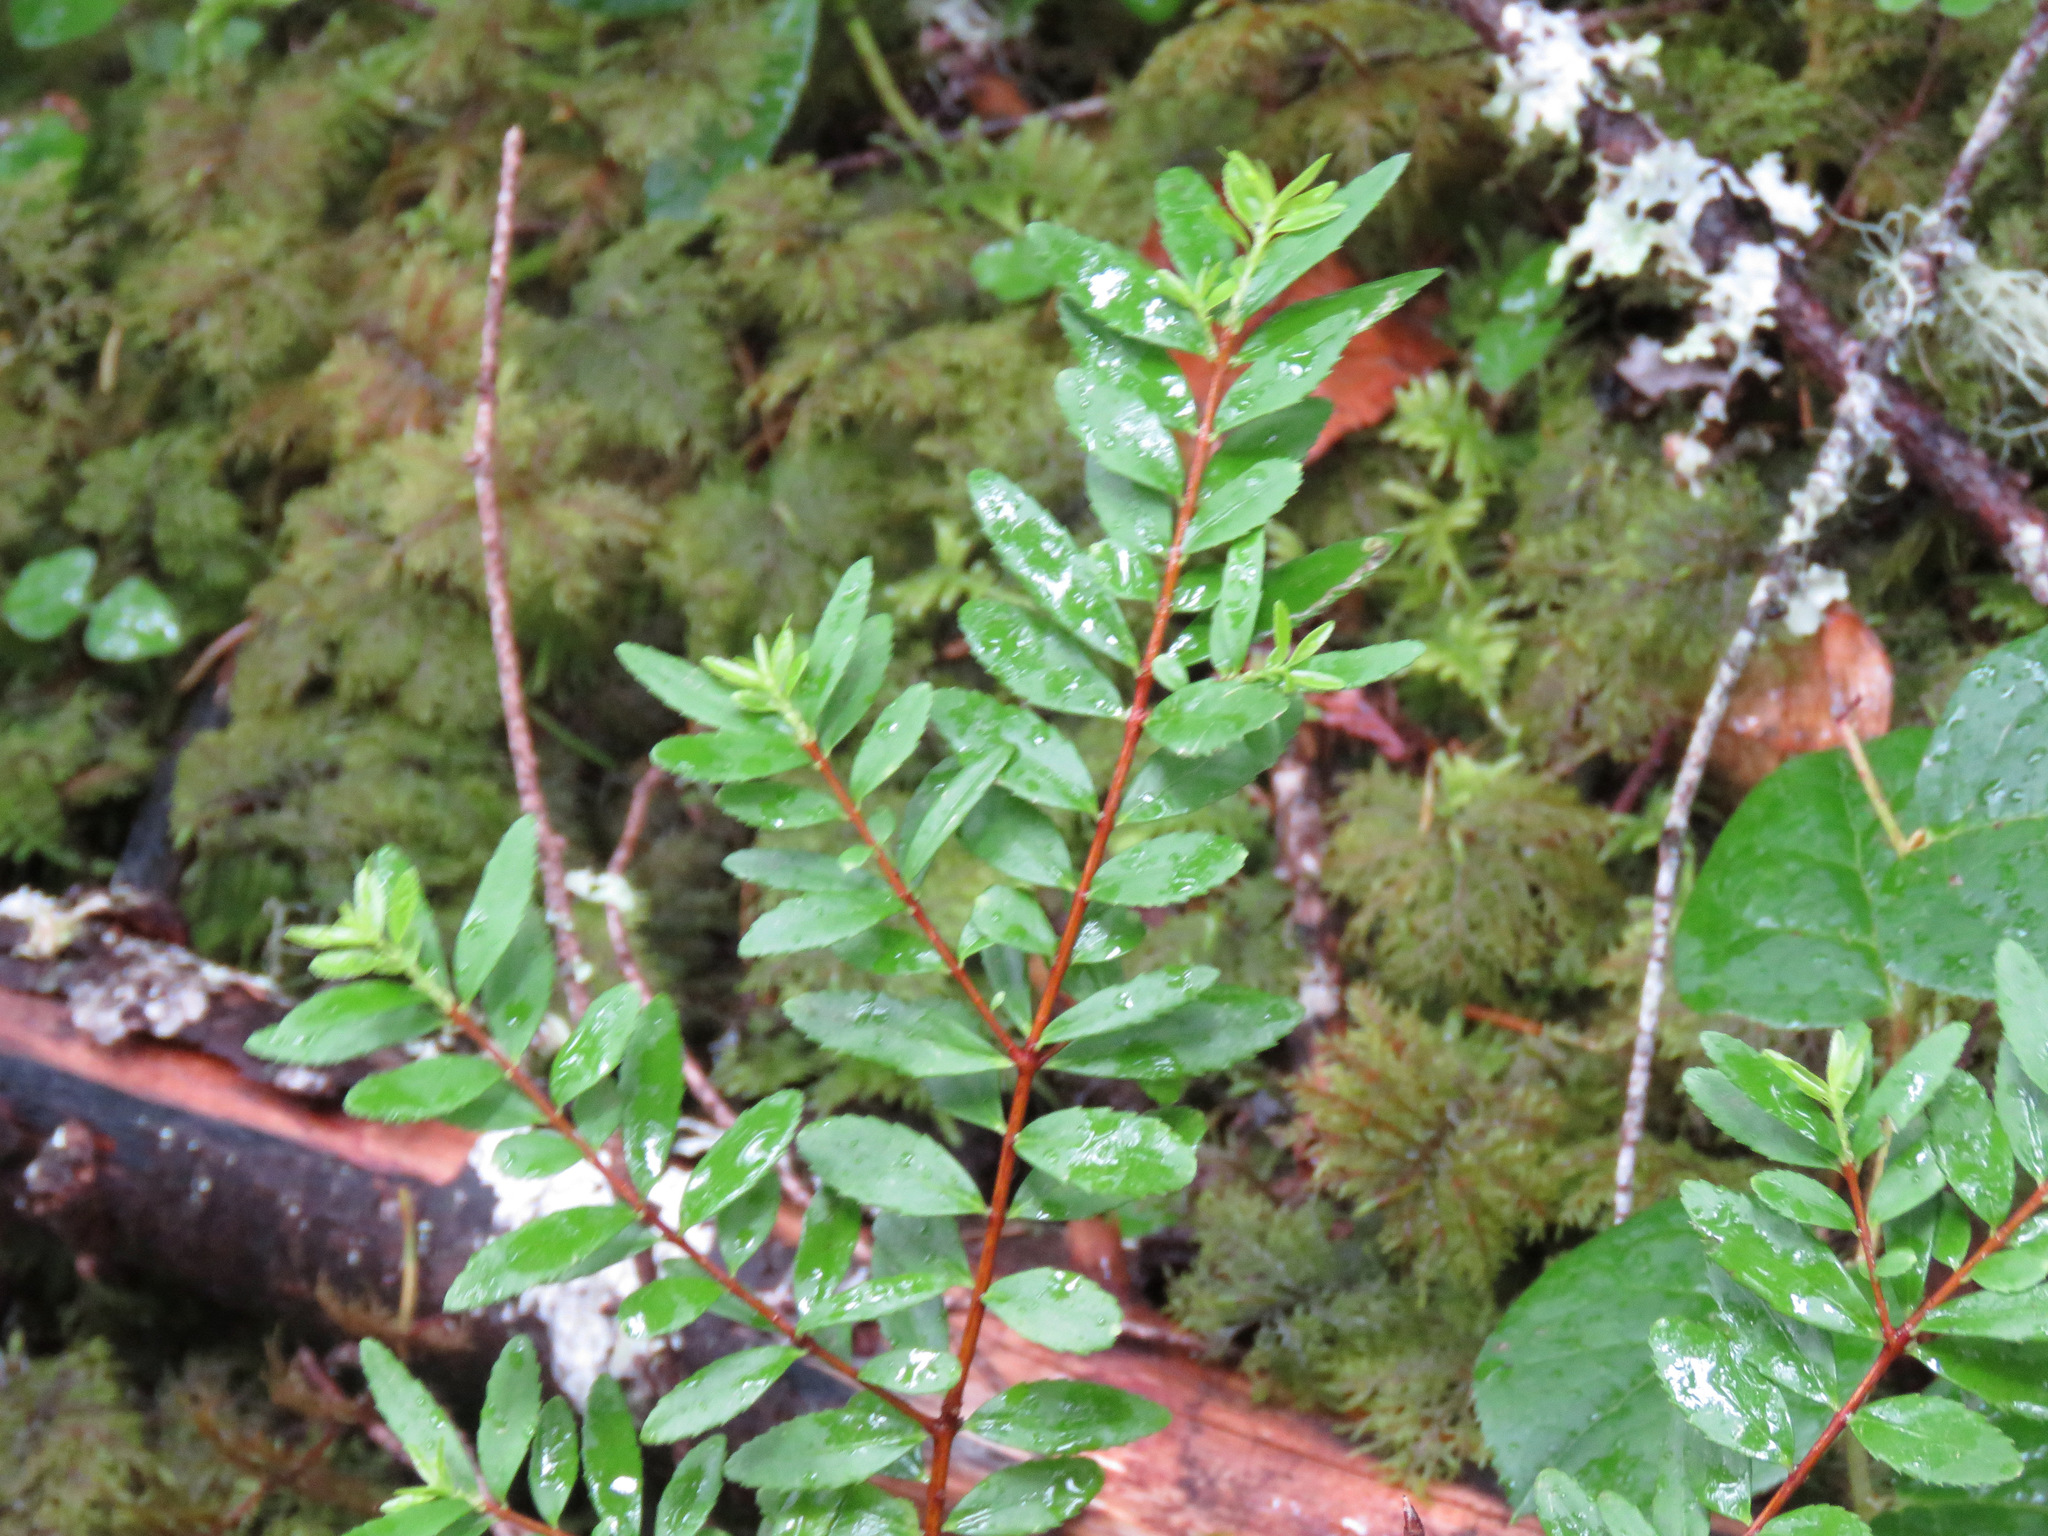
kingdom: Plantae
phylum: Tracheophyta
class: Magnoliopsida
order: Celastrales
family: Celastraceae
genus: Paxistima
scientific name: Paxistima myrsinites
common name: Mountain-lover
